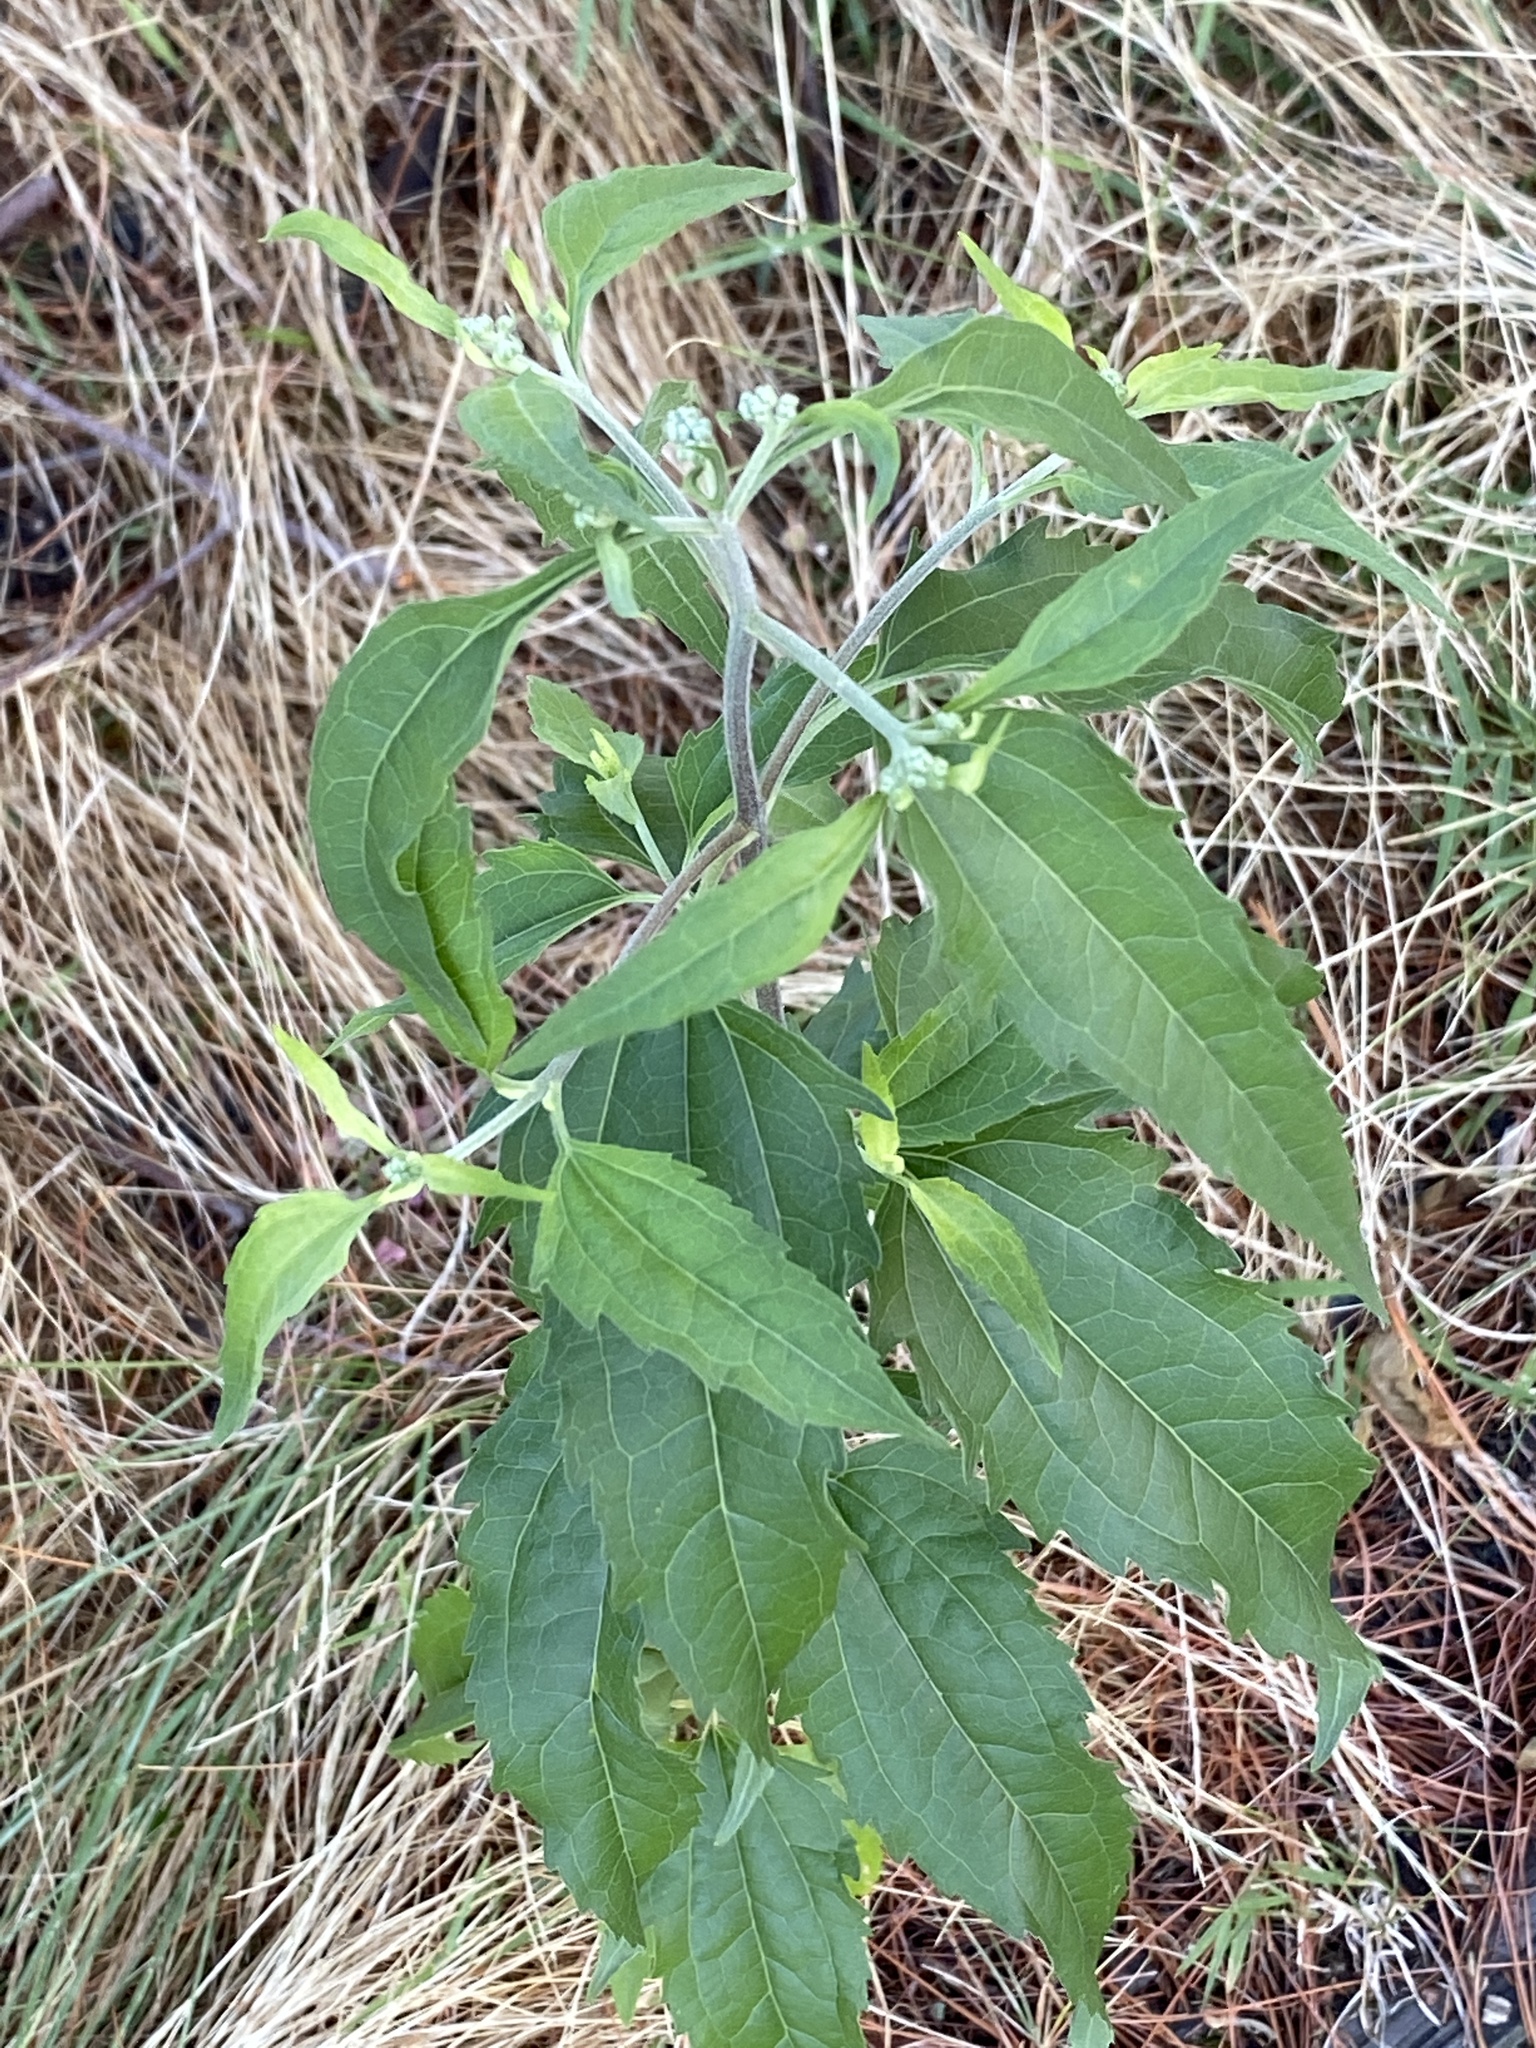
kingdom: Plantae
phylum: Tracheophyta
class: Magnoliopsida
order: Asterales
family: Asteraceae
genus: Eupatorium
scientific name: Eupatorium serotinum
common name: Late boneset
